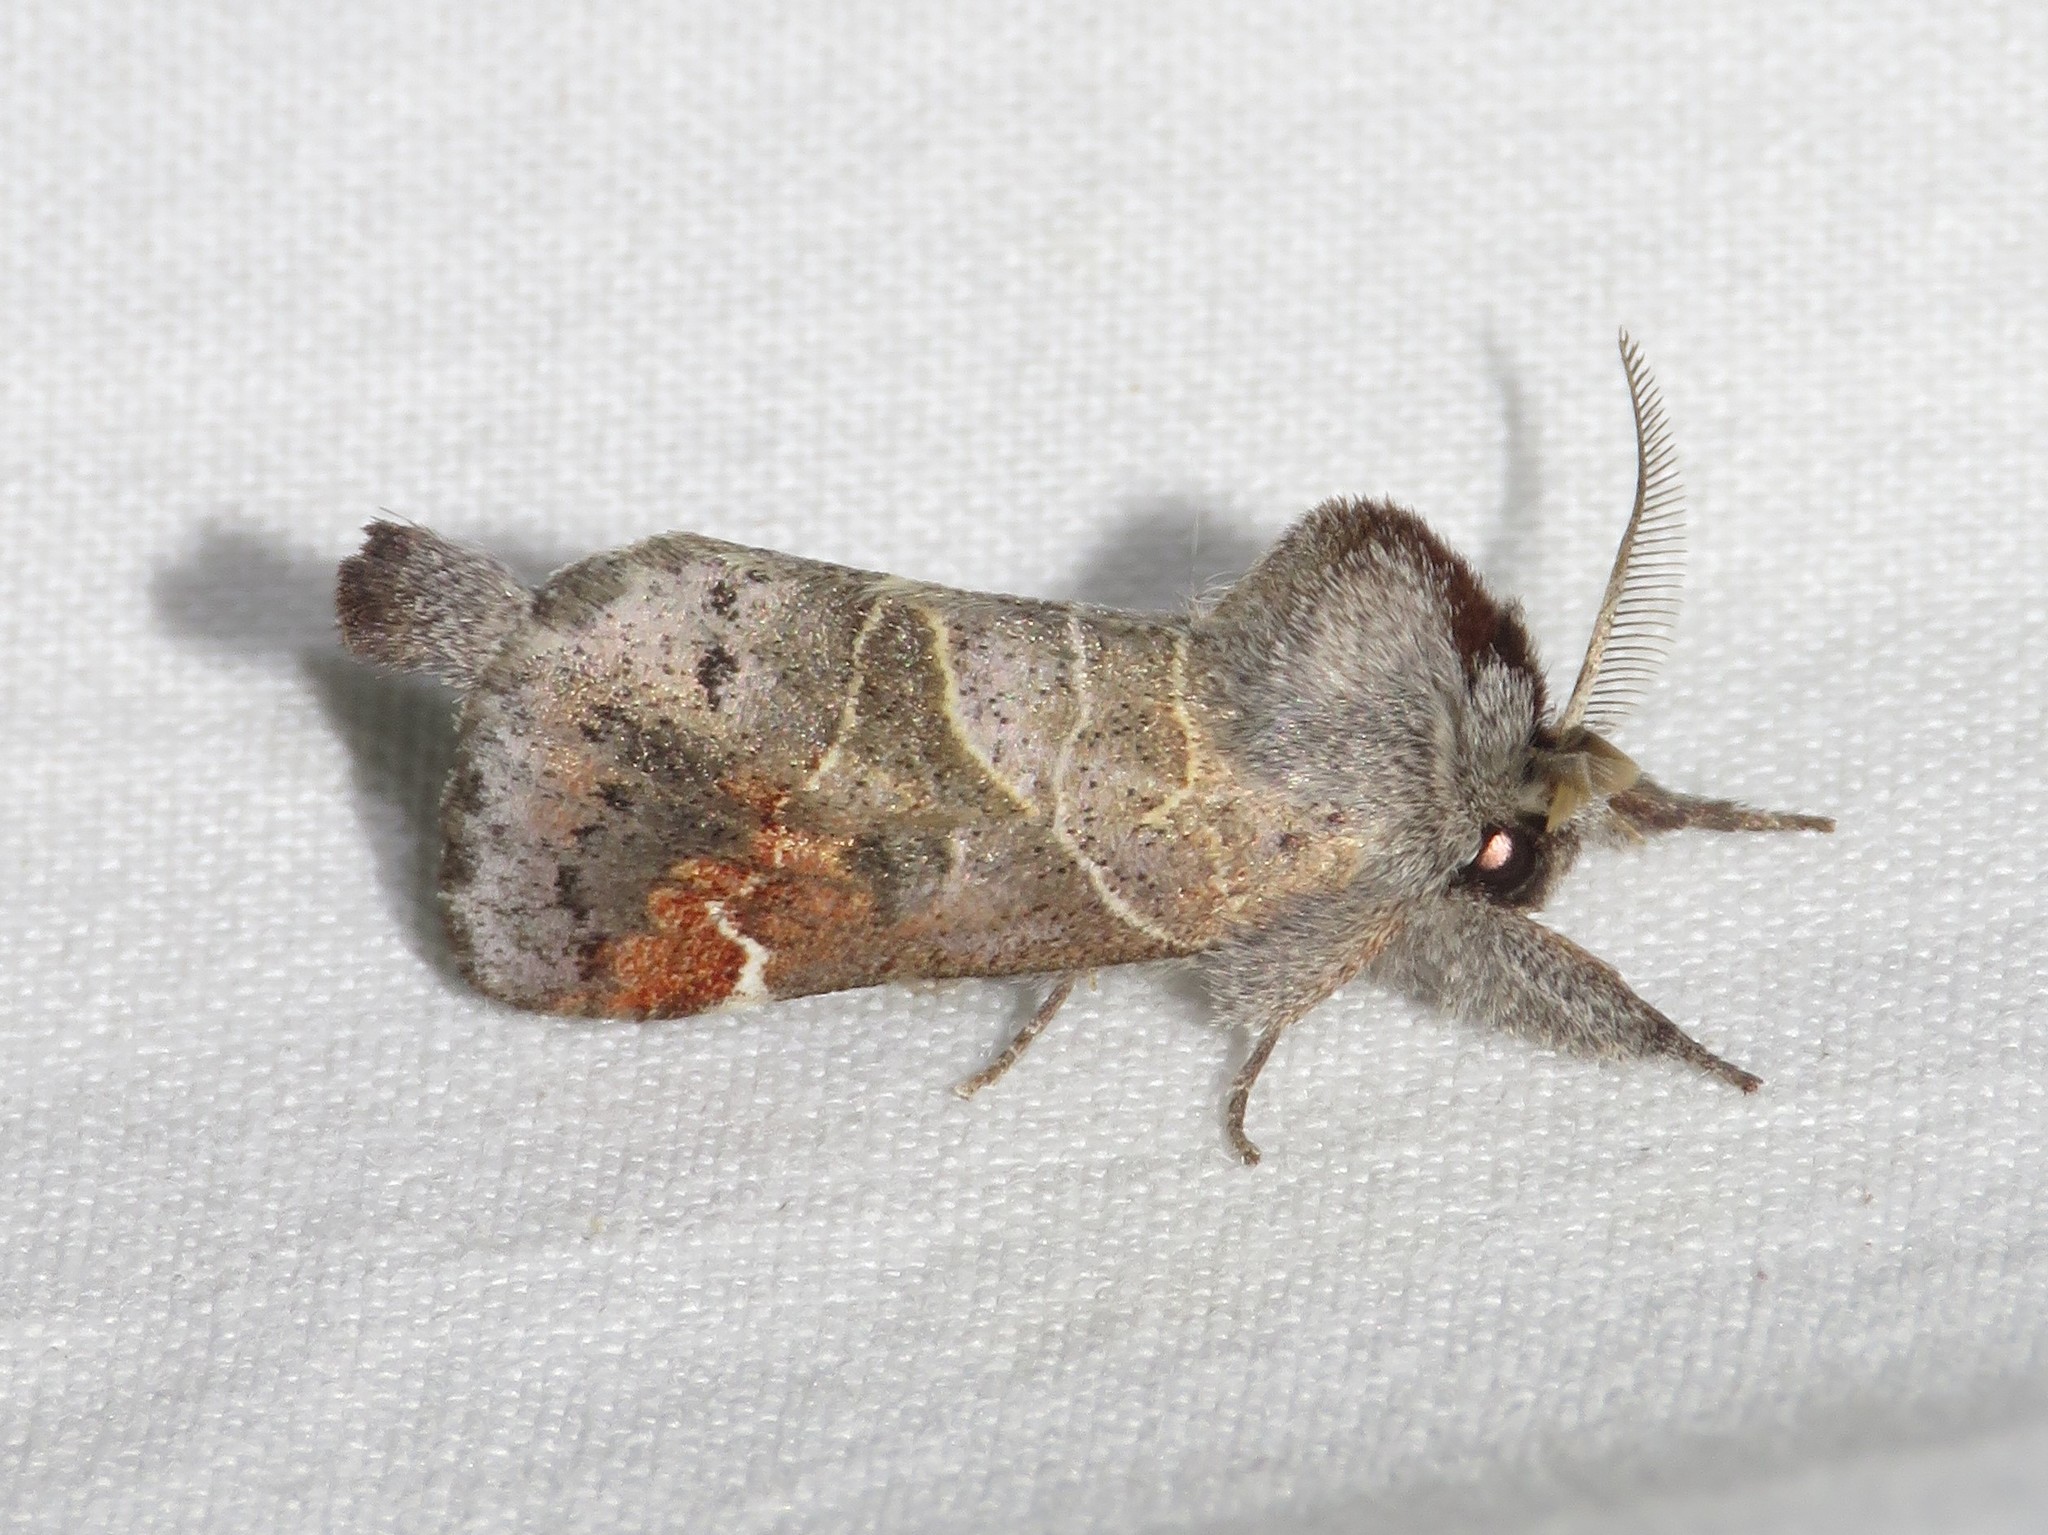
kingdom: Animalia
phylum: Arthropoda
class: Insecta
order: Lepidoptera
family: Notodontidae
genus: Clostera
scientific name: Clostera apicalis
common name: Apical prominent
